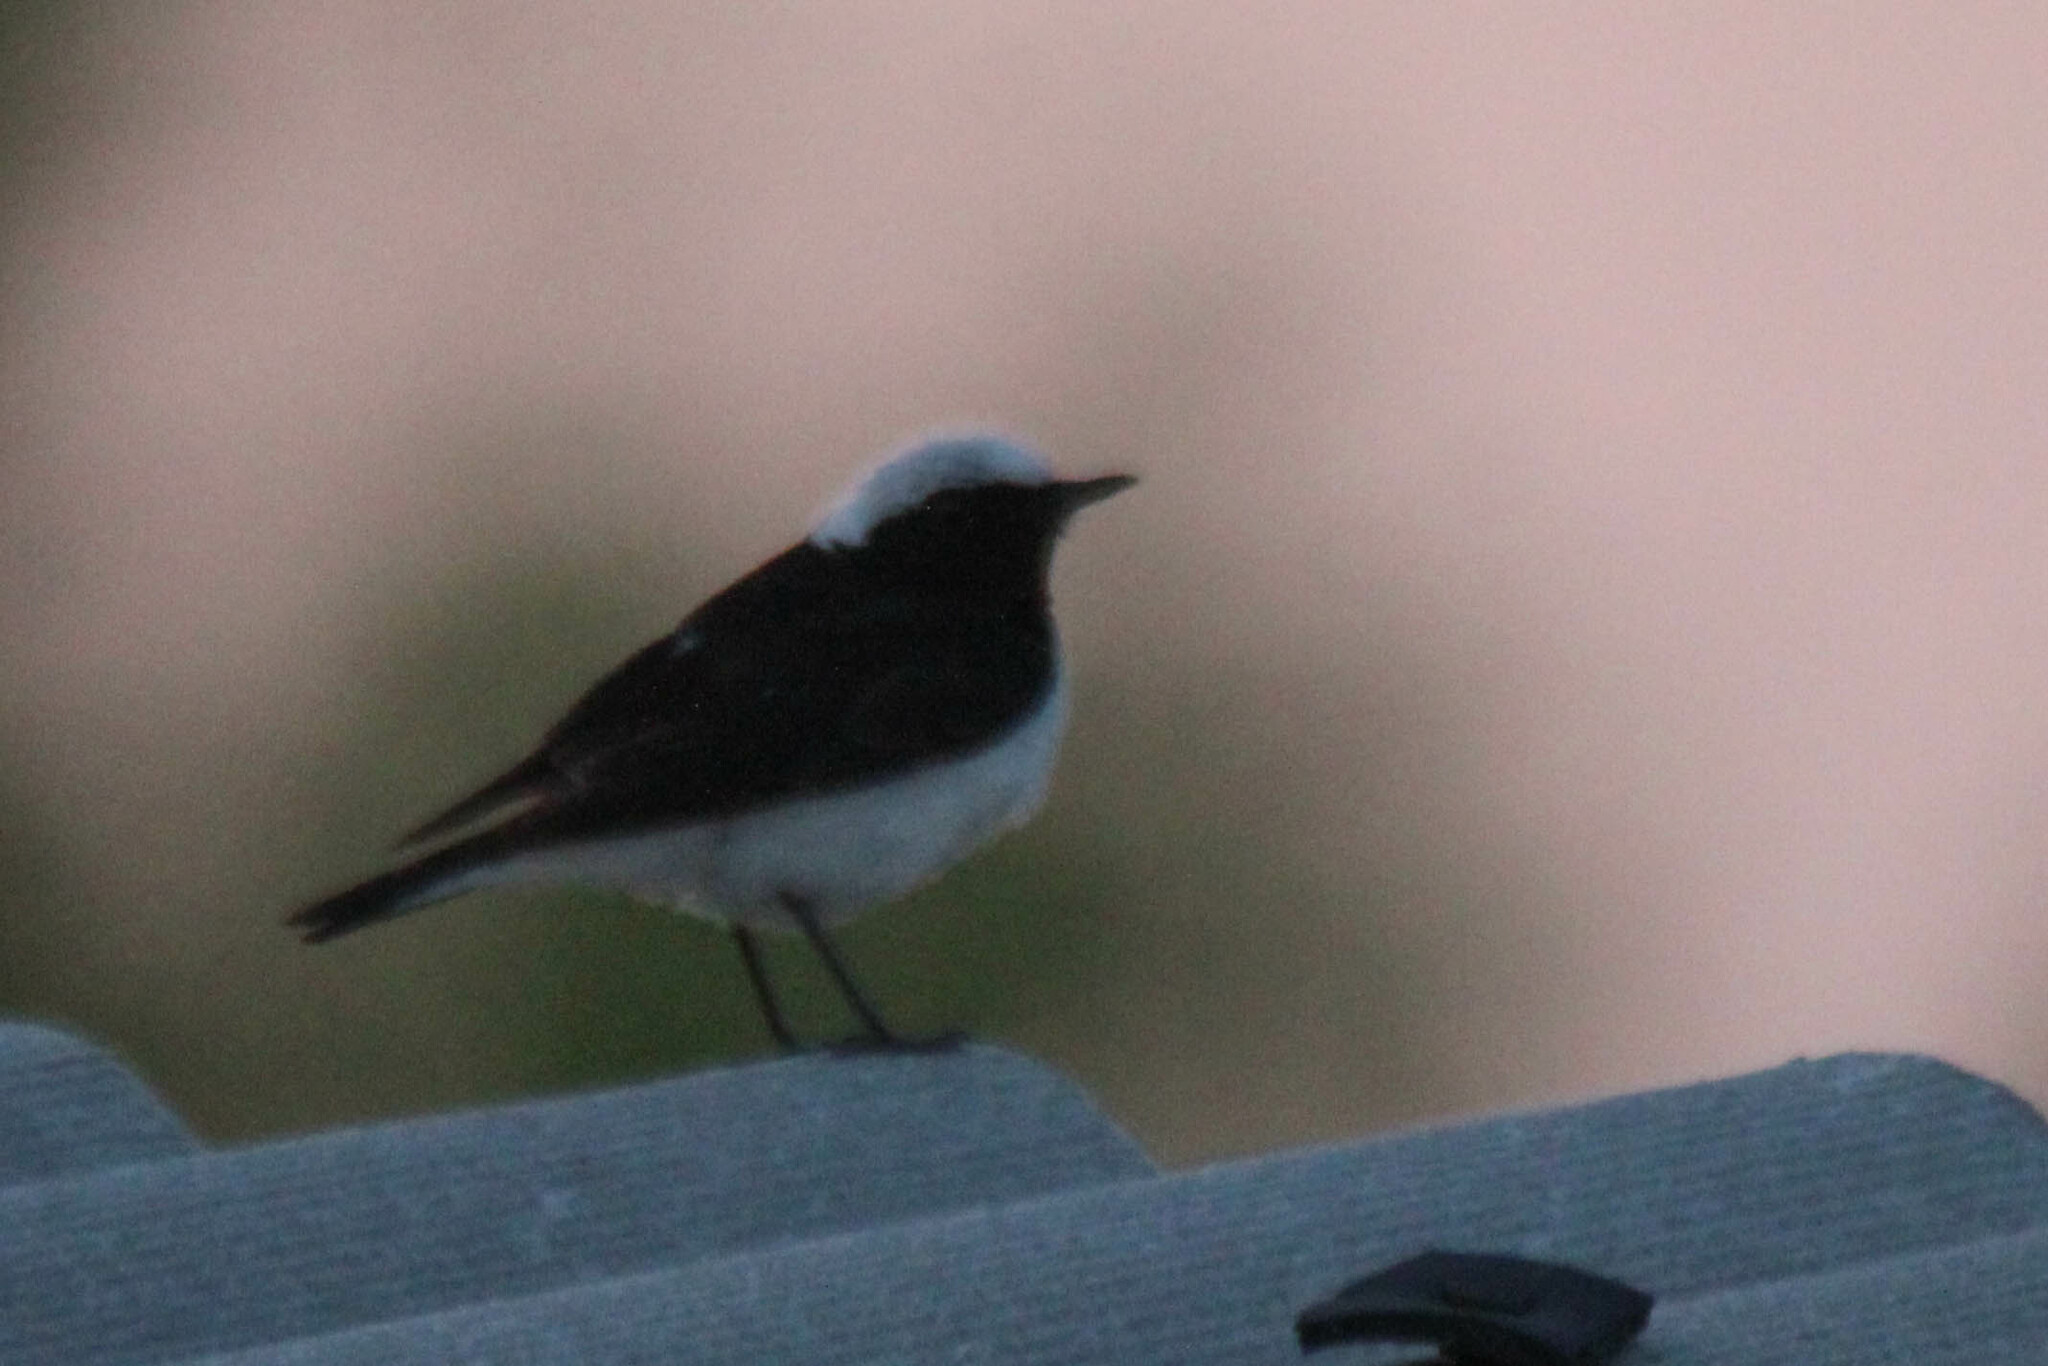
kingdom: Animalia
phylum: Chordata
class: Aves
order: Passeriformes
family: Muscicapidae
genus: Oenanthe
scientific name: Oenanthe pleschanka
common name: Pied wheatear
